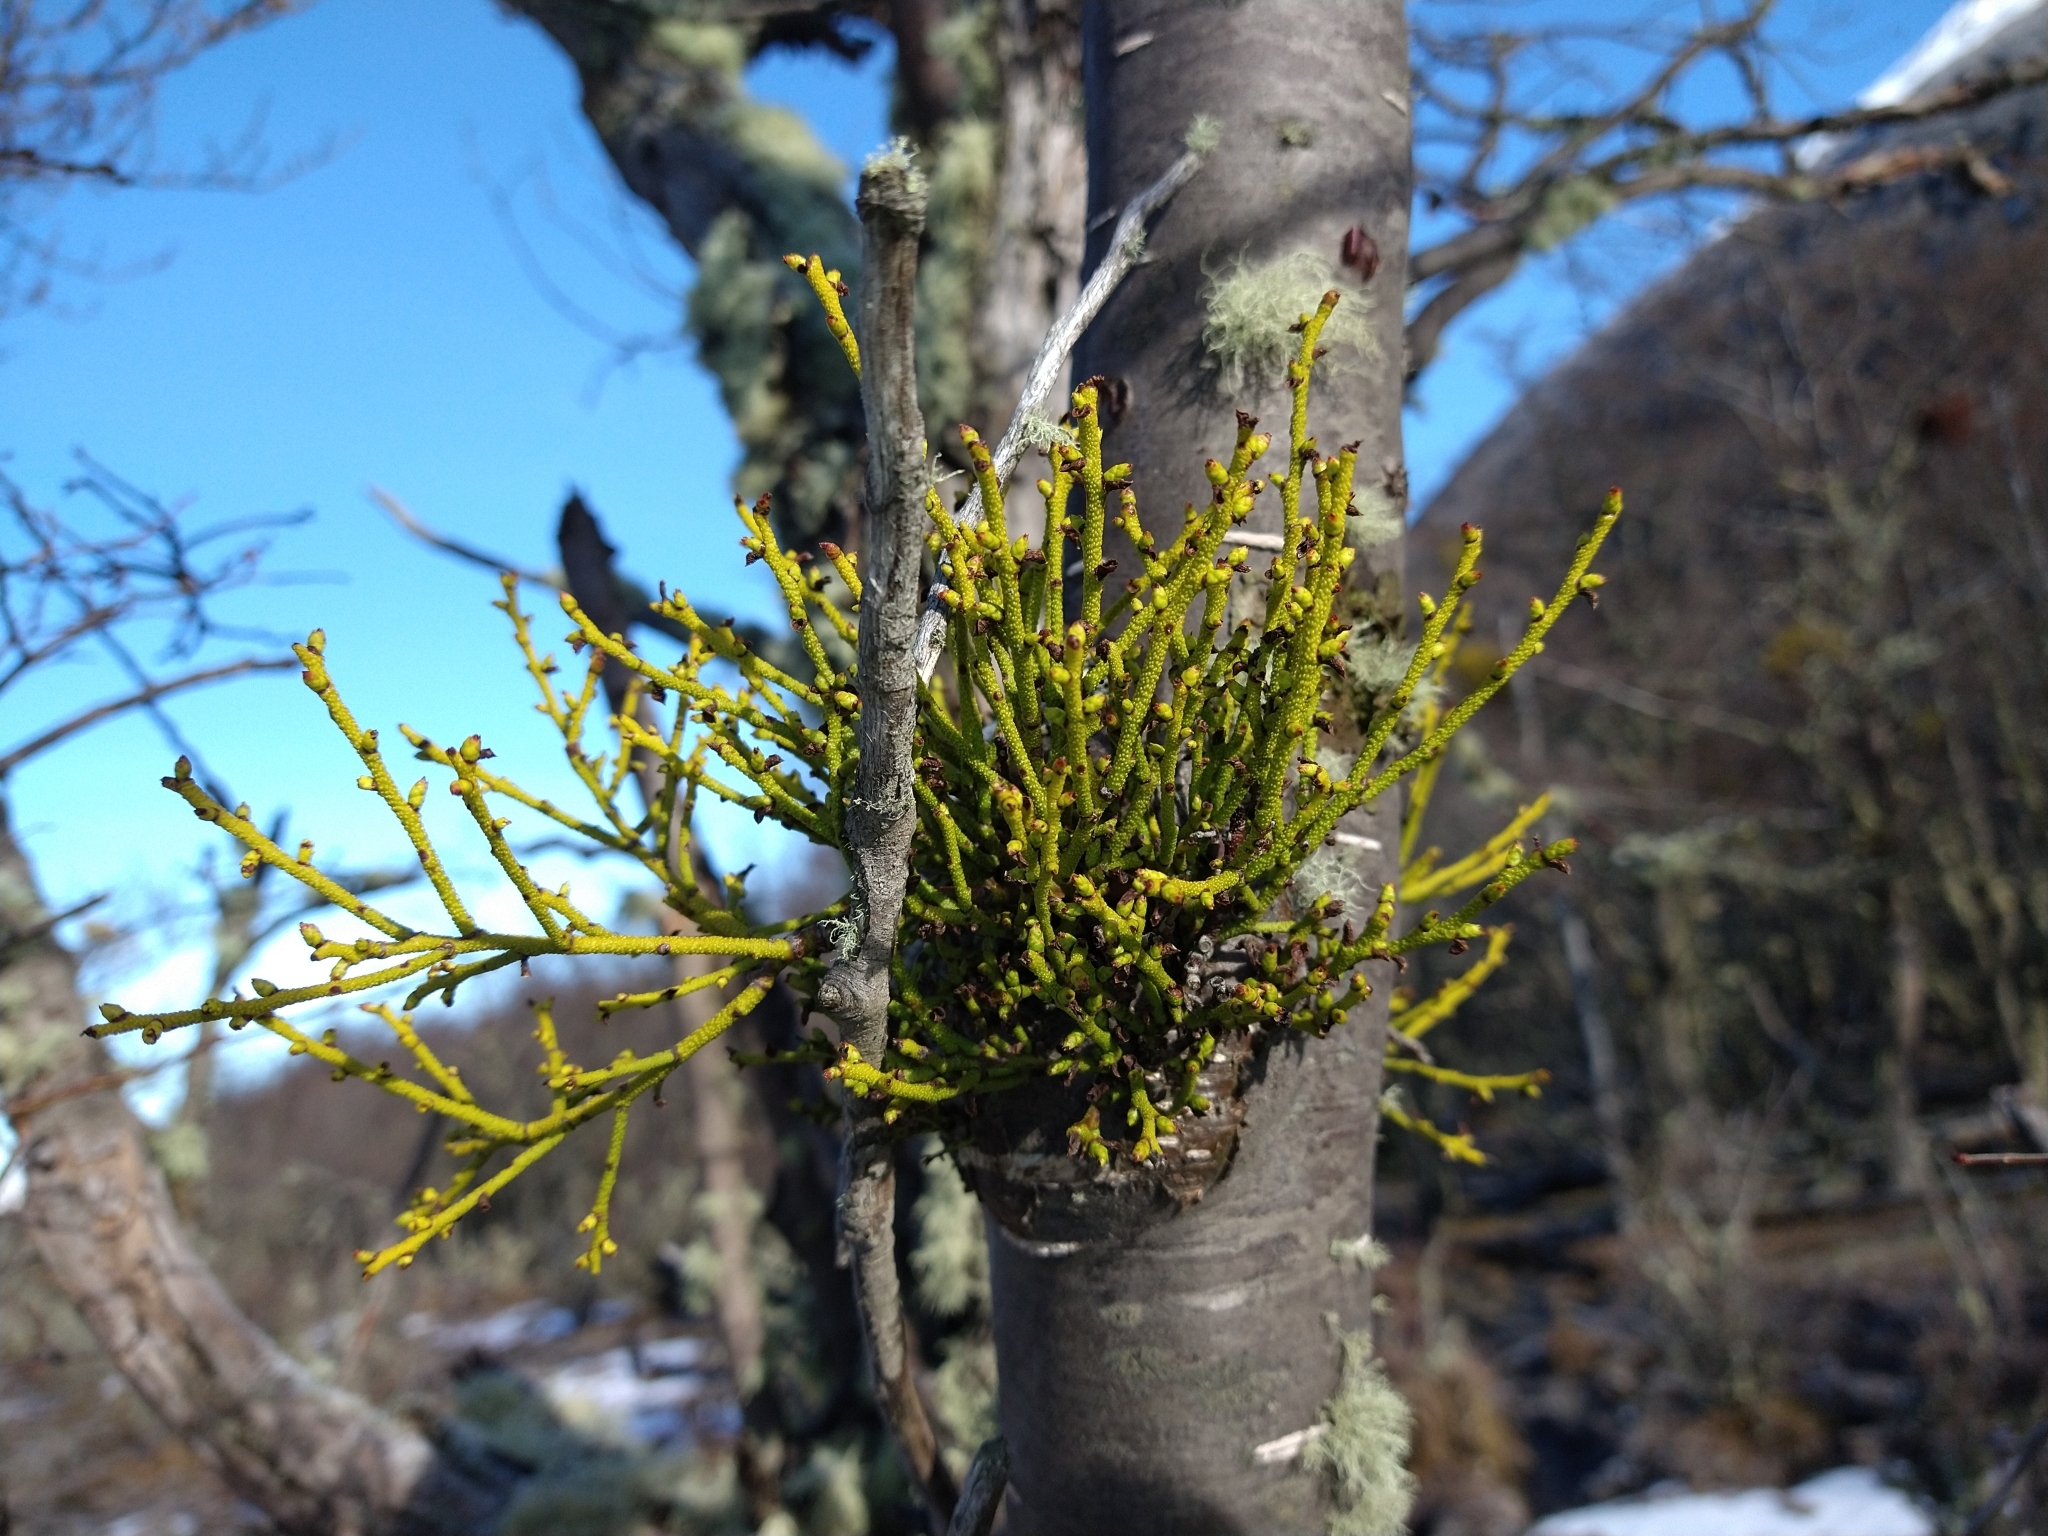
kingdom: Plantae
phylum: Tracheophyta
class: Magnoliopsida
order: Santalales
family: Misodendraceae
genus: Misodendrum
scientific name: Misodendrum punctulatum
